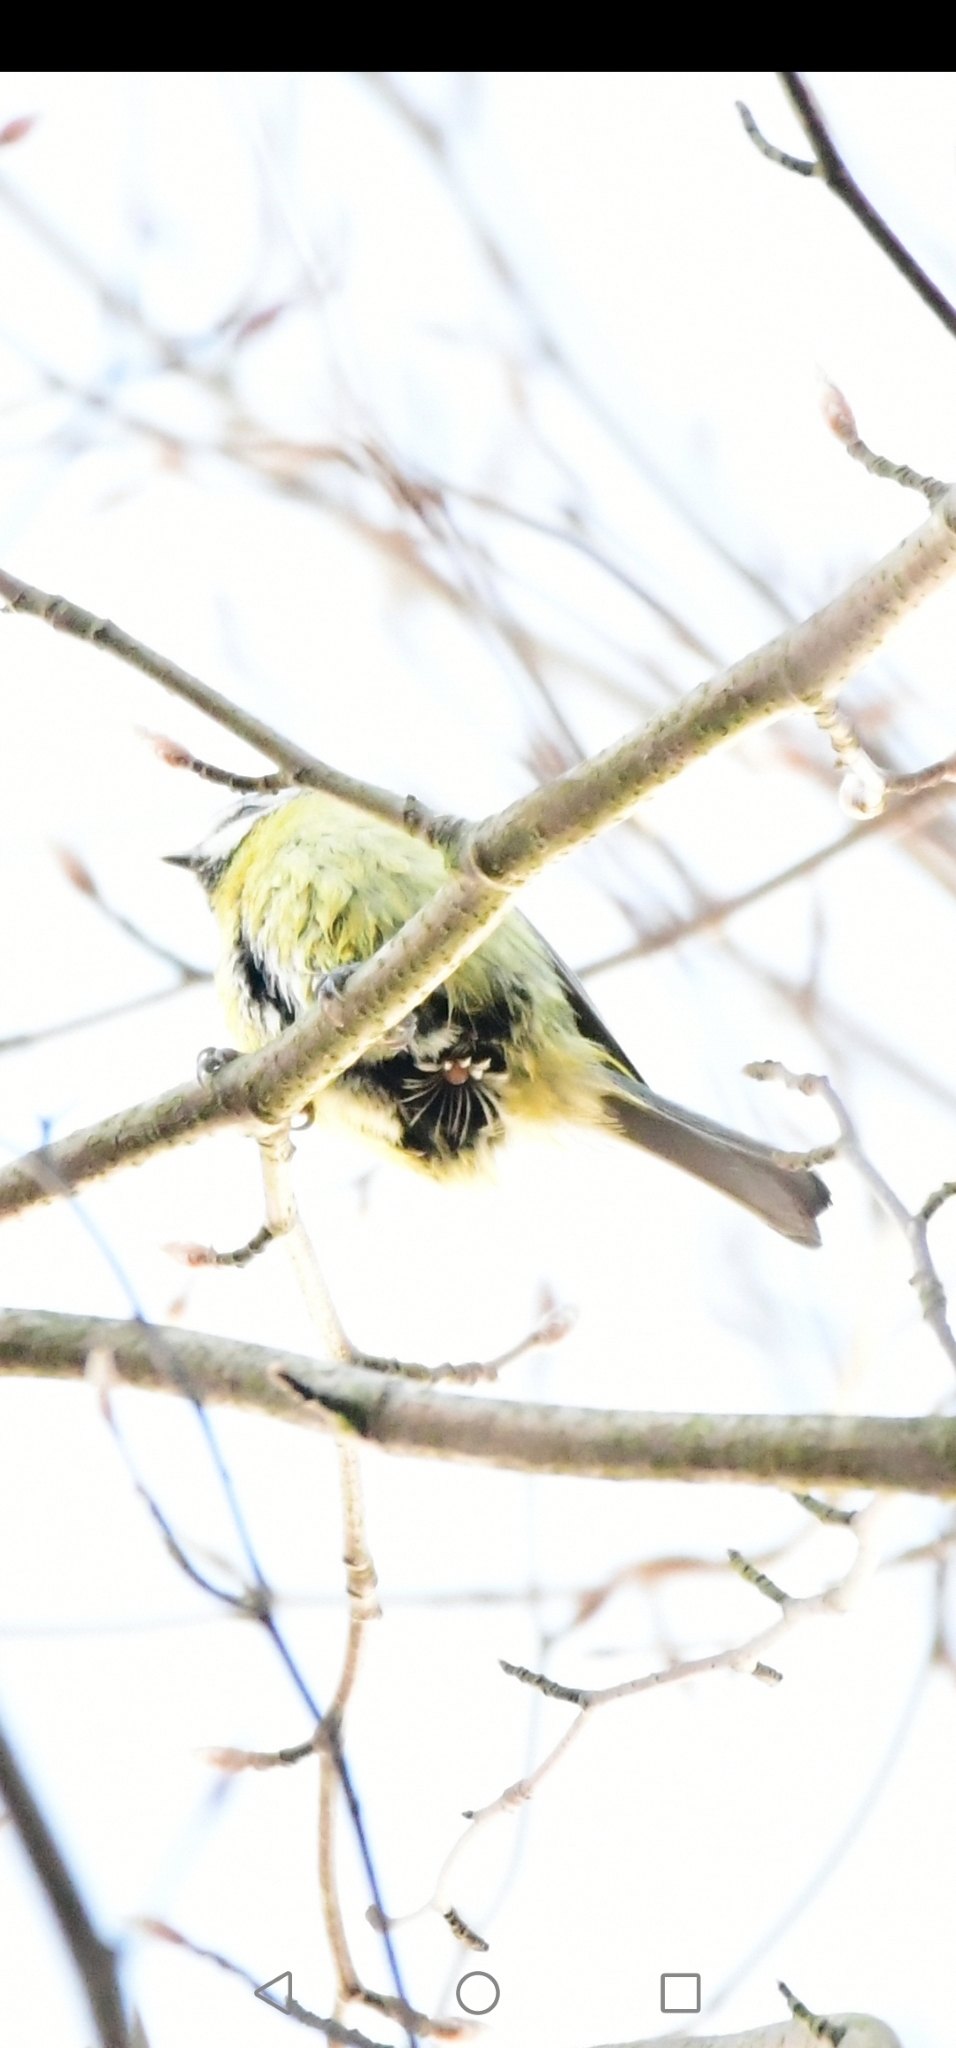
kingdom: Animalia
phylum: Chordata
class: Aves
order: Passeriformes
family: Paridae
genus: Cyanistes
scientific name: Cyanistes caeruleus
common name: Eurasian blue tit
